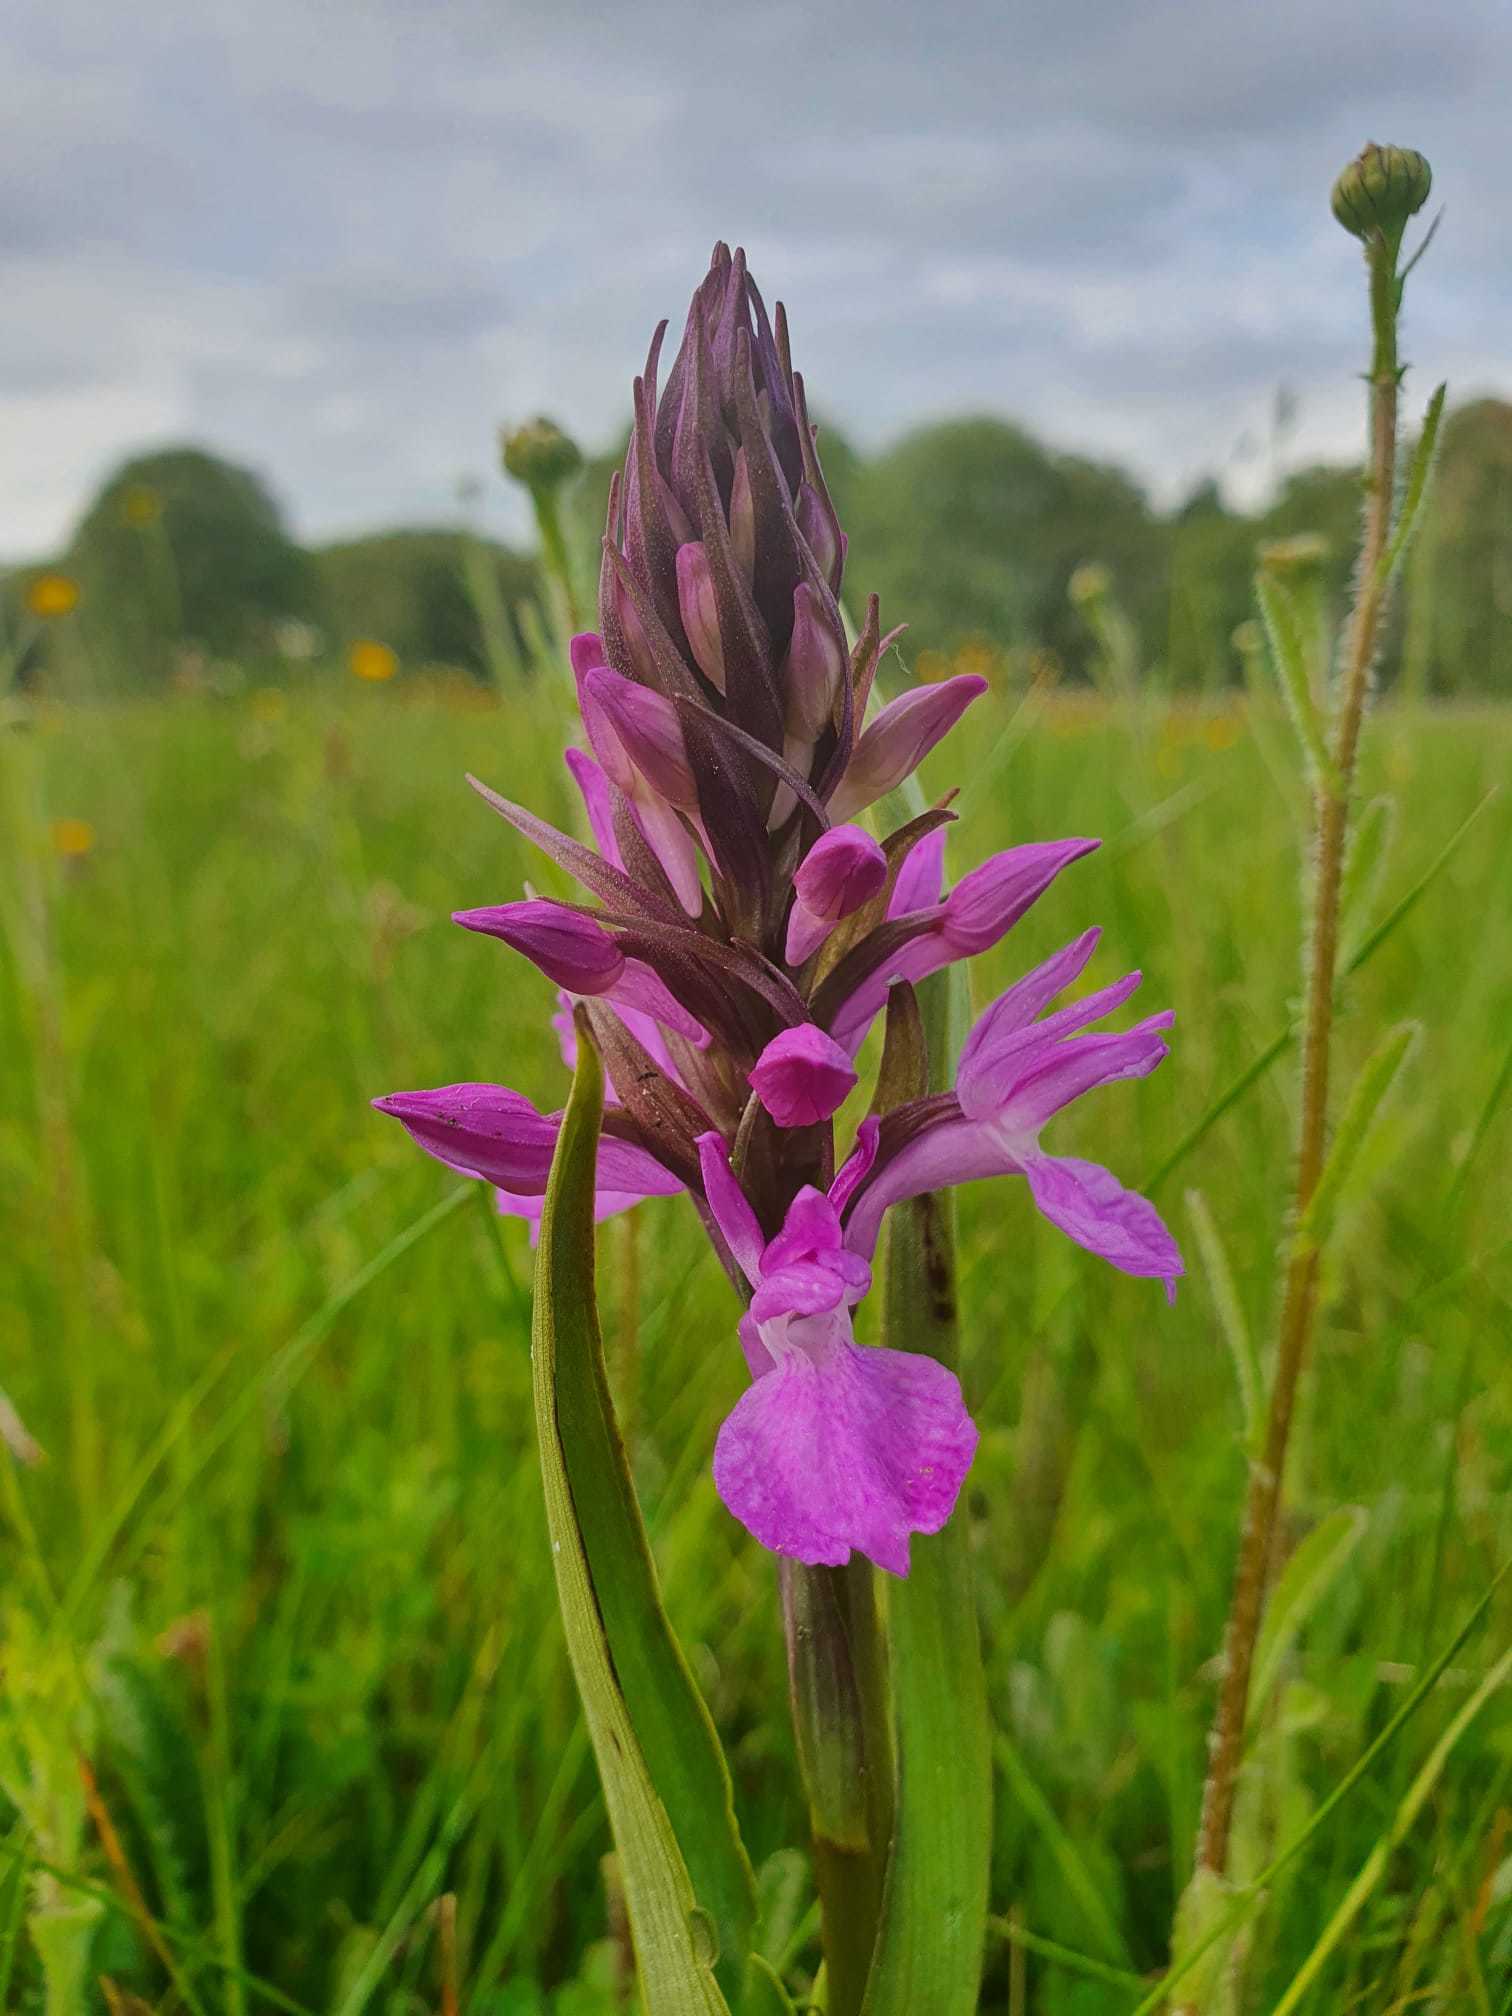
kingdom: Plantae
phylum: Tracheophyta
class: Liliopsida
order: Asparagales
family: Orchidaceae
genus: Dactylorhiza
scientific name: Dactylorhiza elata
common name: Stately dactylorhiza
